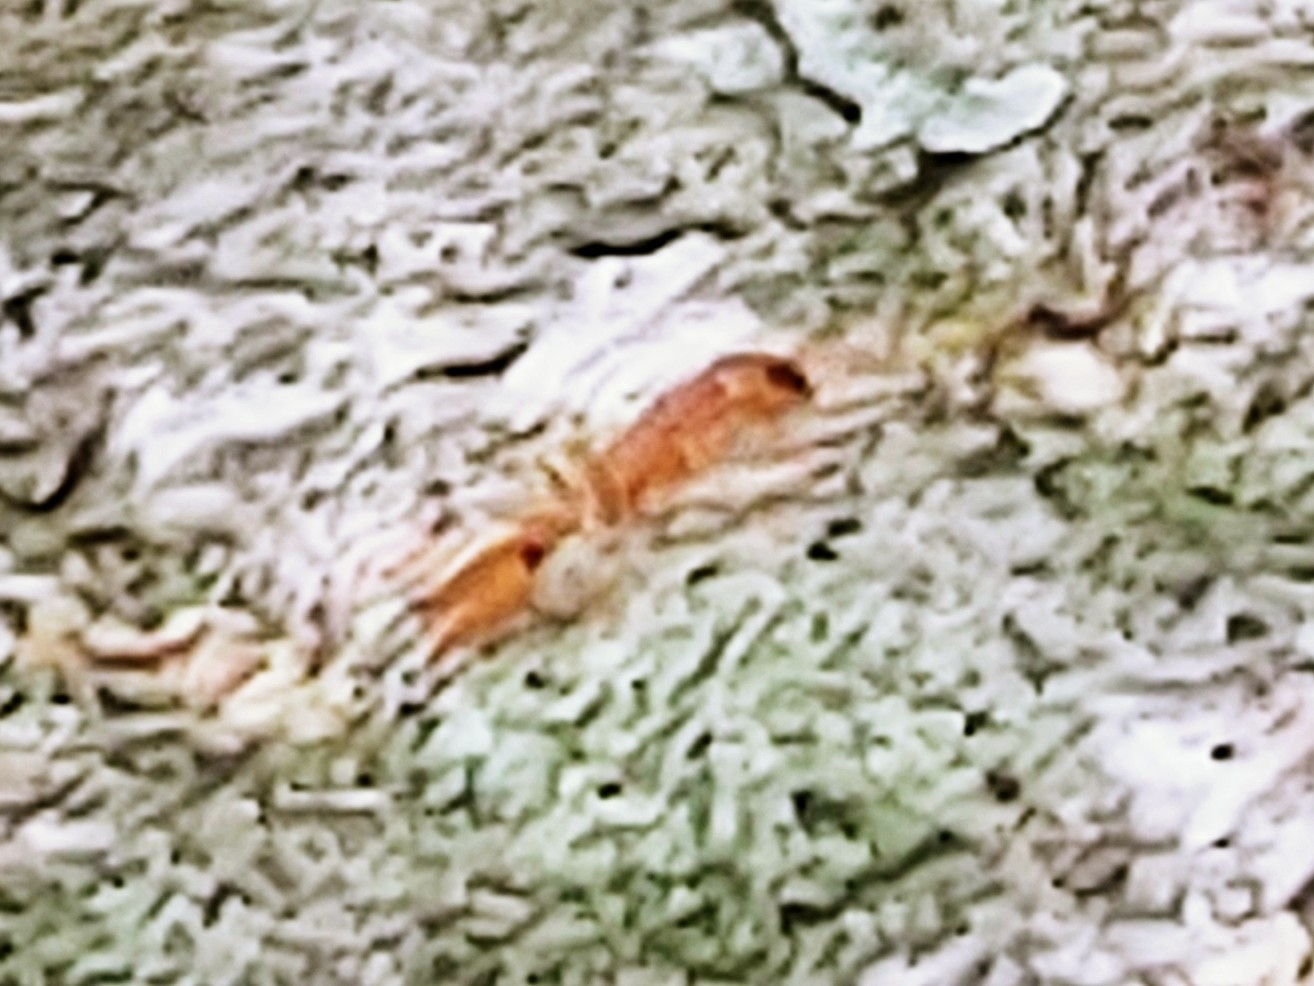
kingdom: Animalia
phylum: Arthropoda
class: Insecta
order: Hymenoptera
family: Formicidae
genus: Pseudomyrmex
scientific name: Pseudomyrmex simplex
